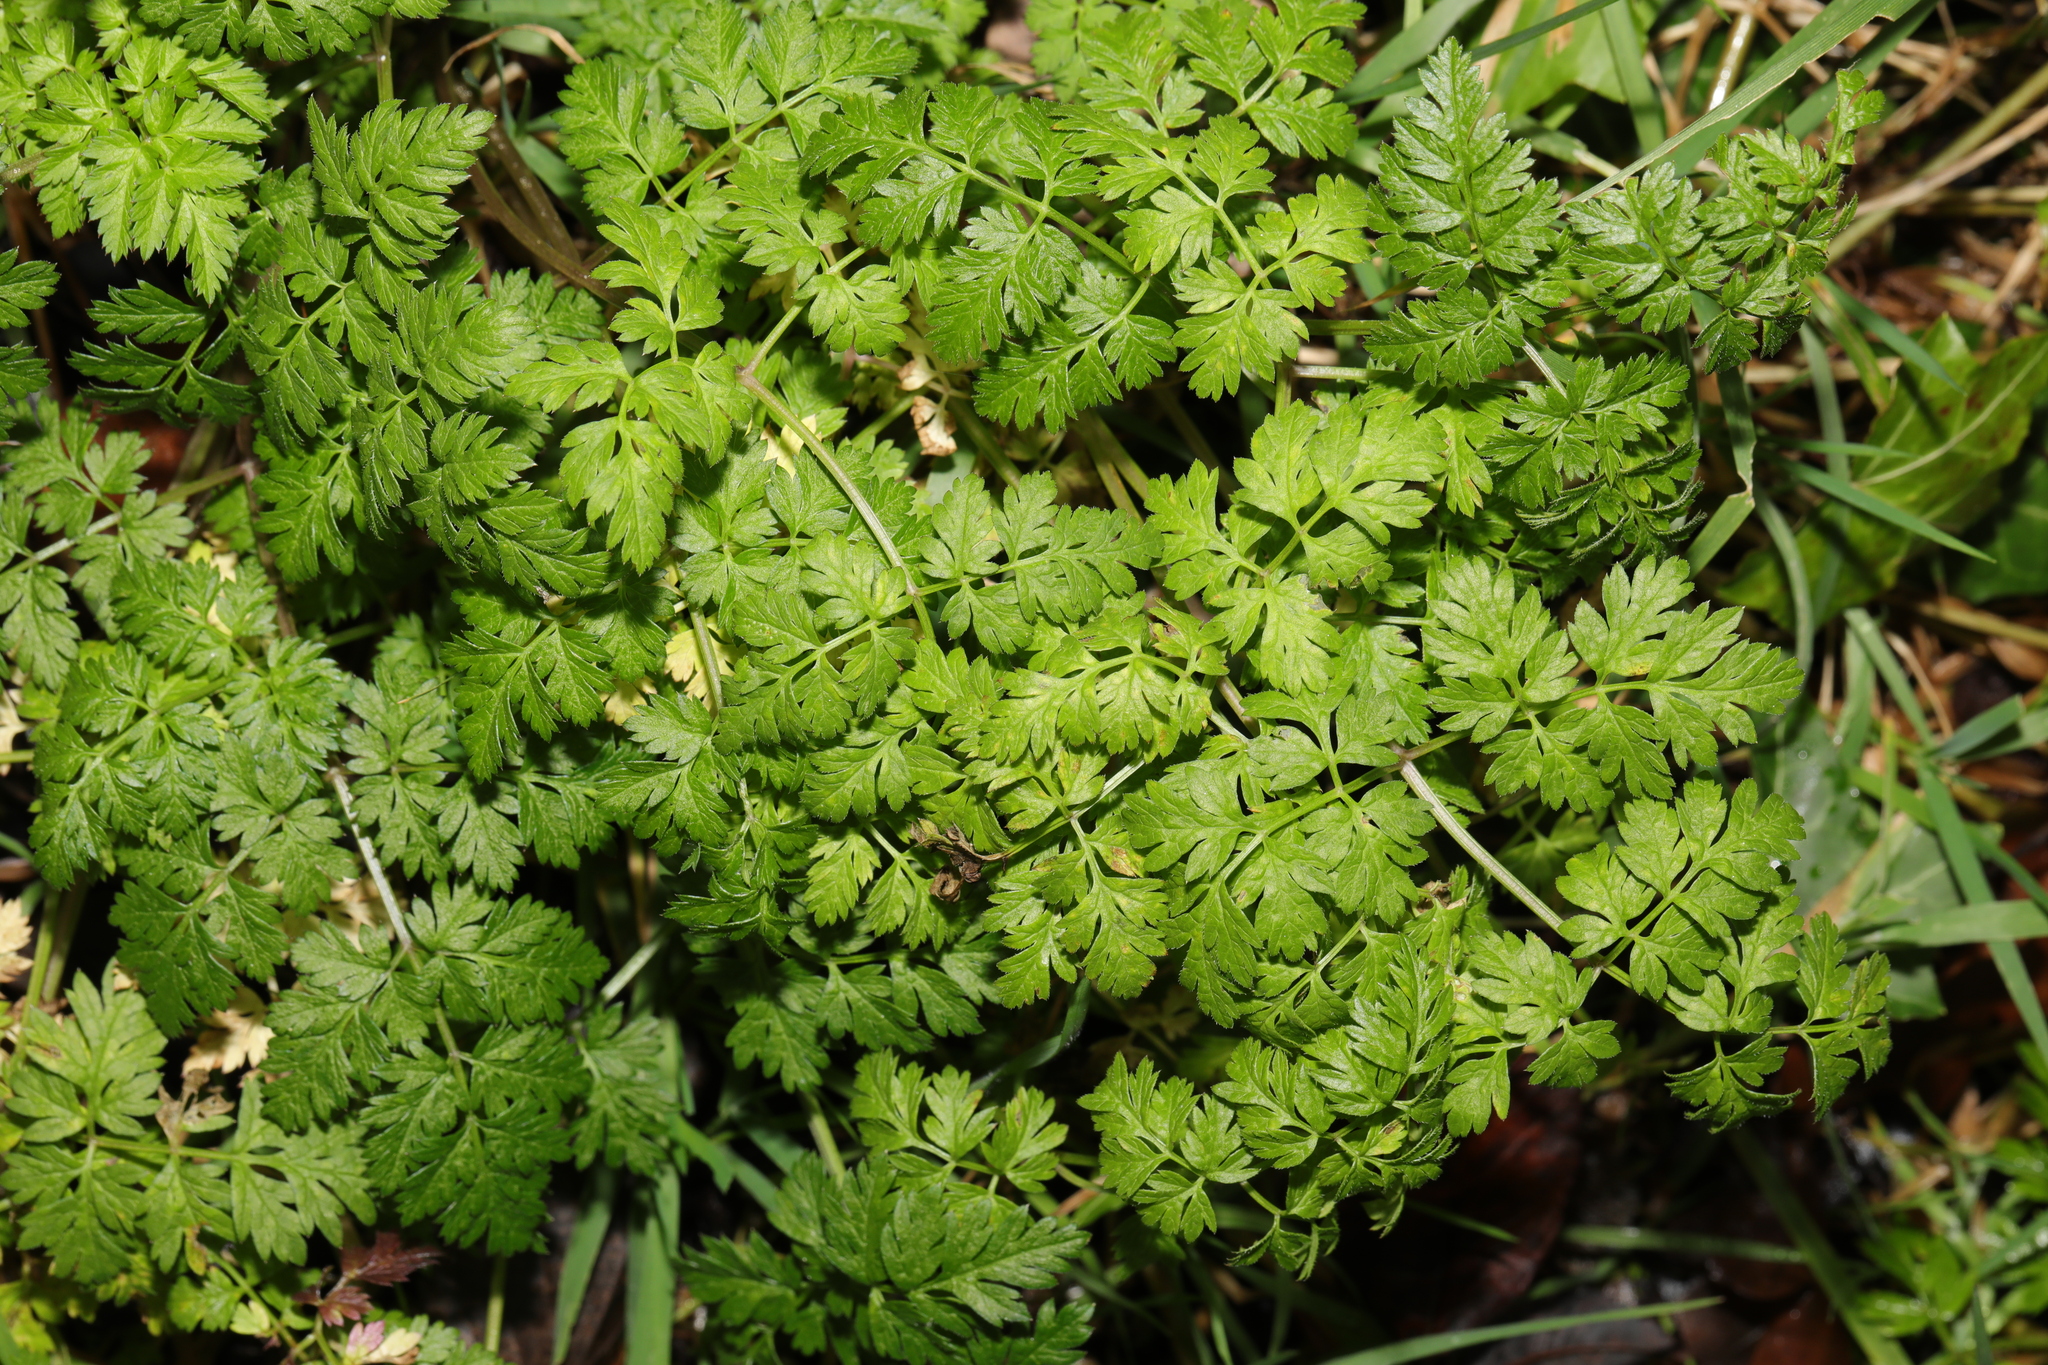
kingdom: Plantae
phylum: Tracheophyta
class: Magnoliopsida
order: Apiales
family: Apiaceae
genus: Anthriscus
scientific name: Anthriscus sylvestris
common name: Cow parsley
